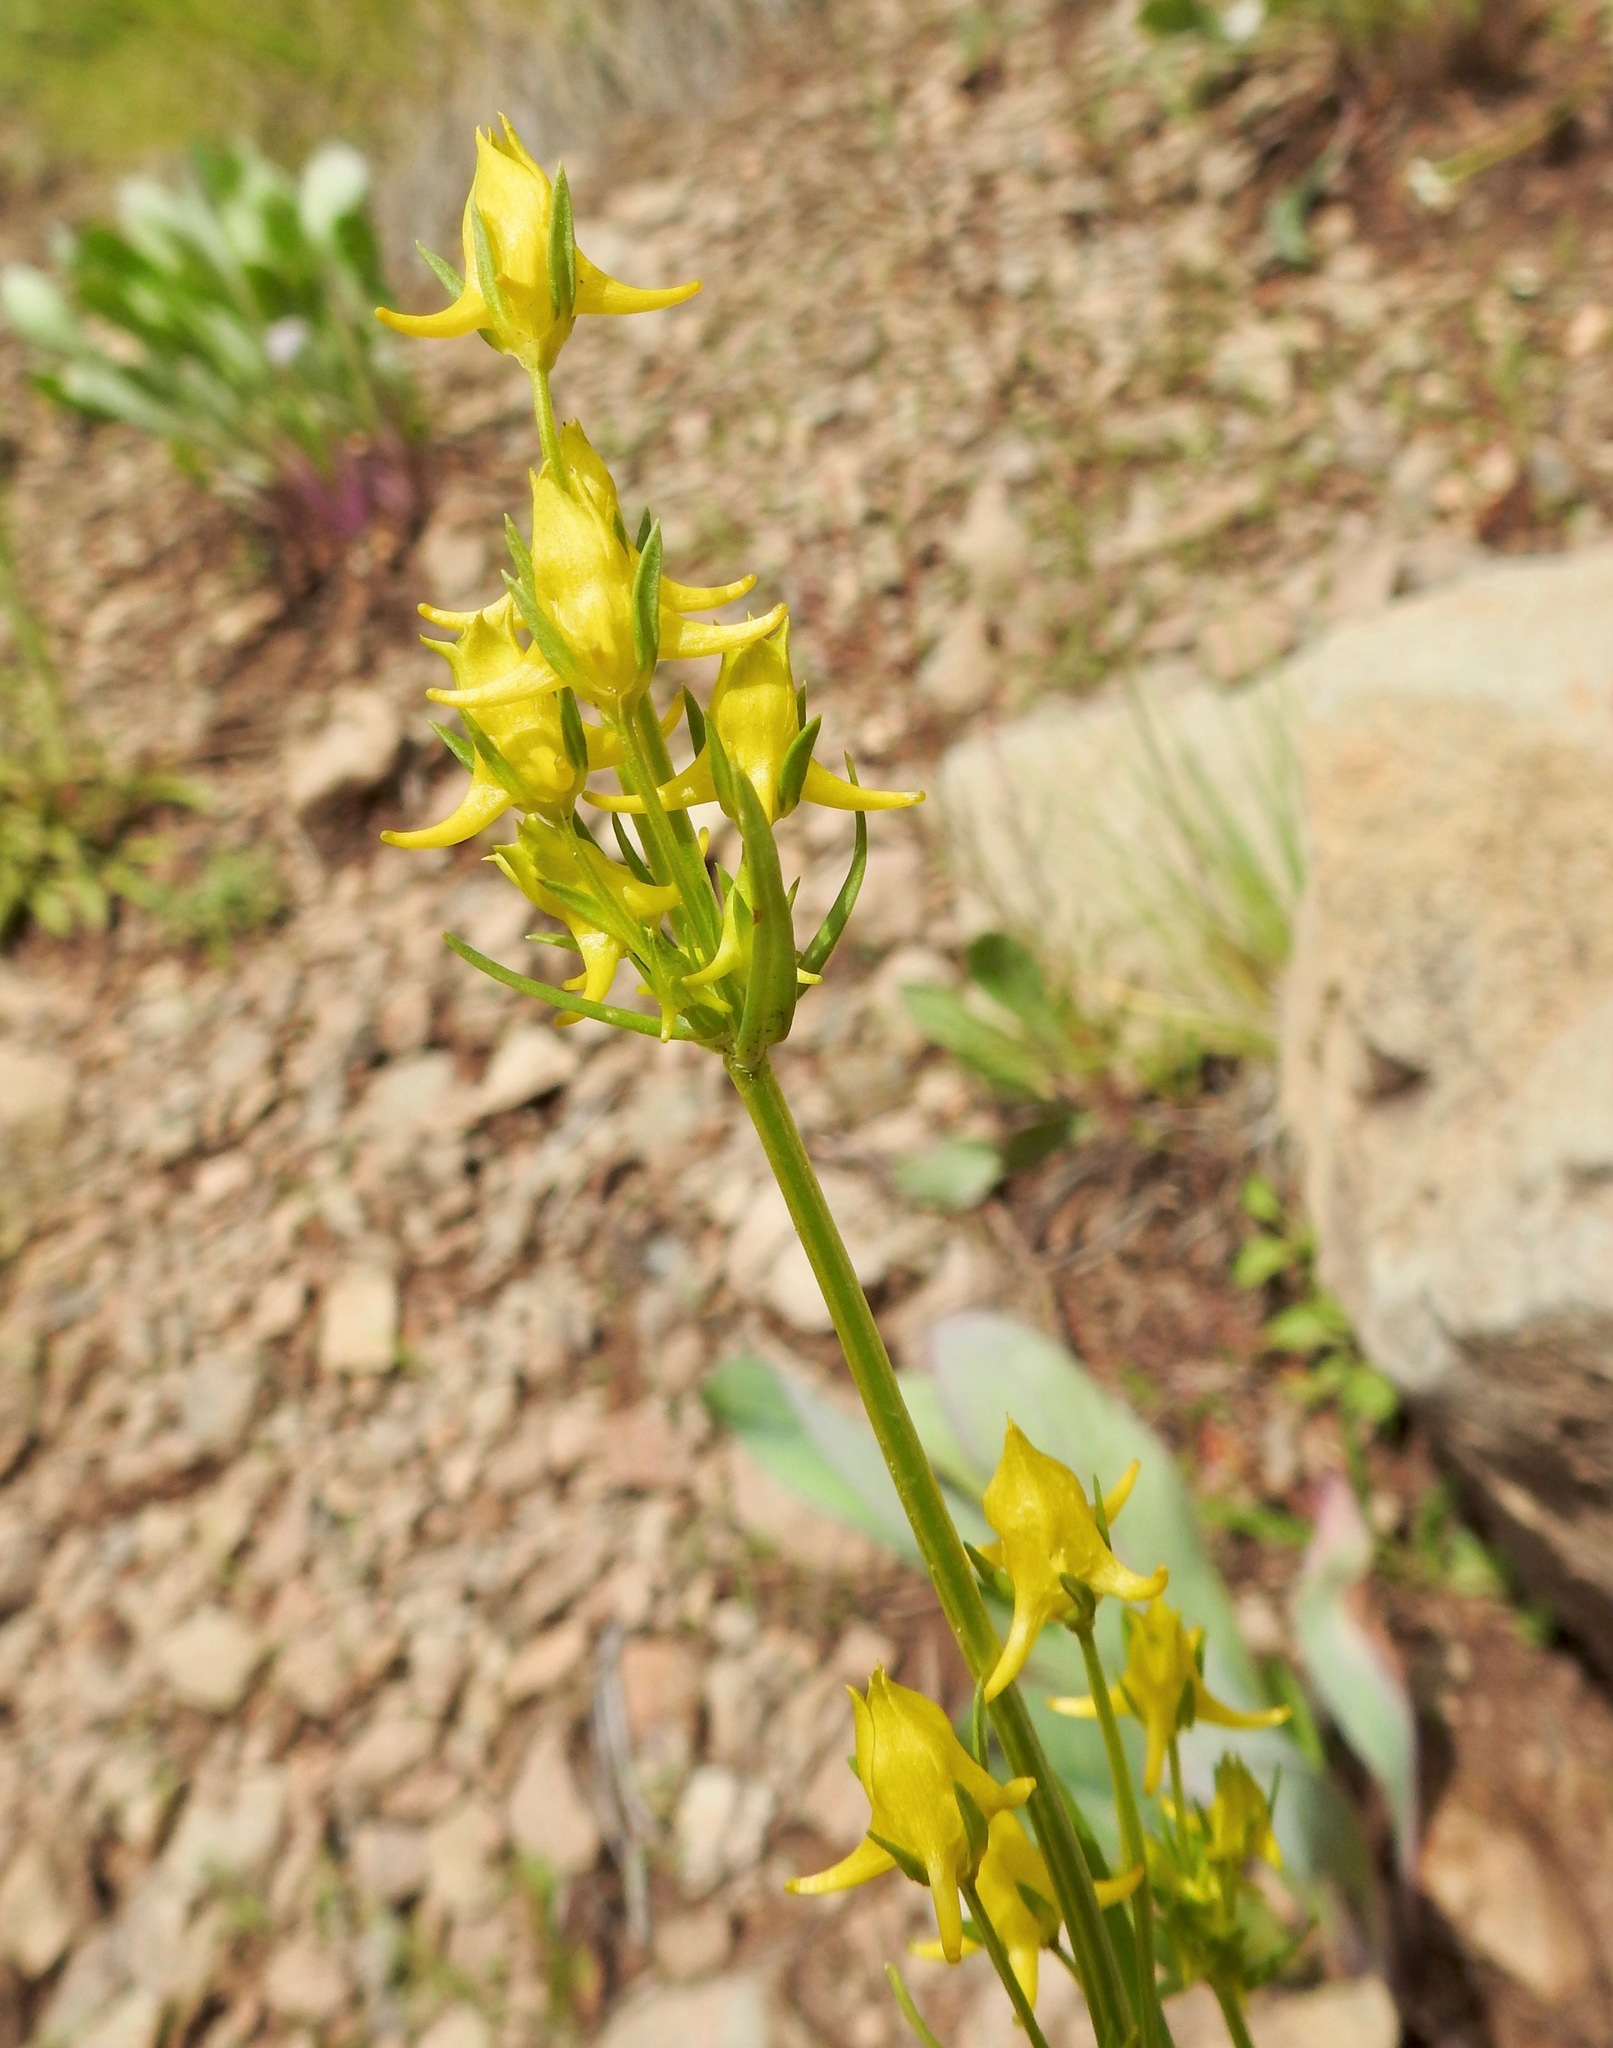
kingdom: Plantae
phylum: Tracheophyta
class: Magnoliopsida
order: Gentianales
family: Gentianaceae
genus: Halenia
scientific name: Halenia recurva
